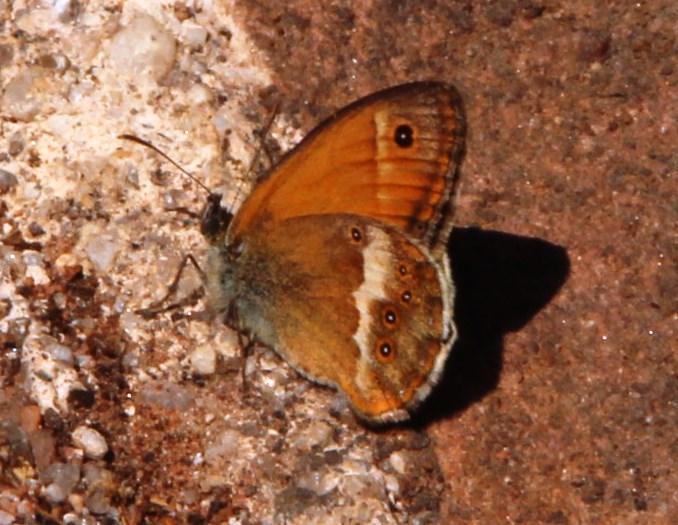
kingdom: Animalia
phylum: Arthropoda
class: Insecta
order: Lepidoptera
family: Nymphalidae
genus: Coenonympha
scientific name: Coenonympha dorus
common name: Dusky heath
